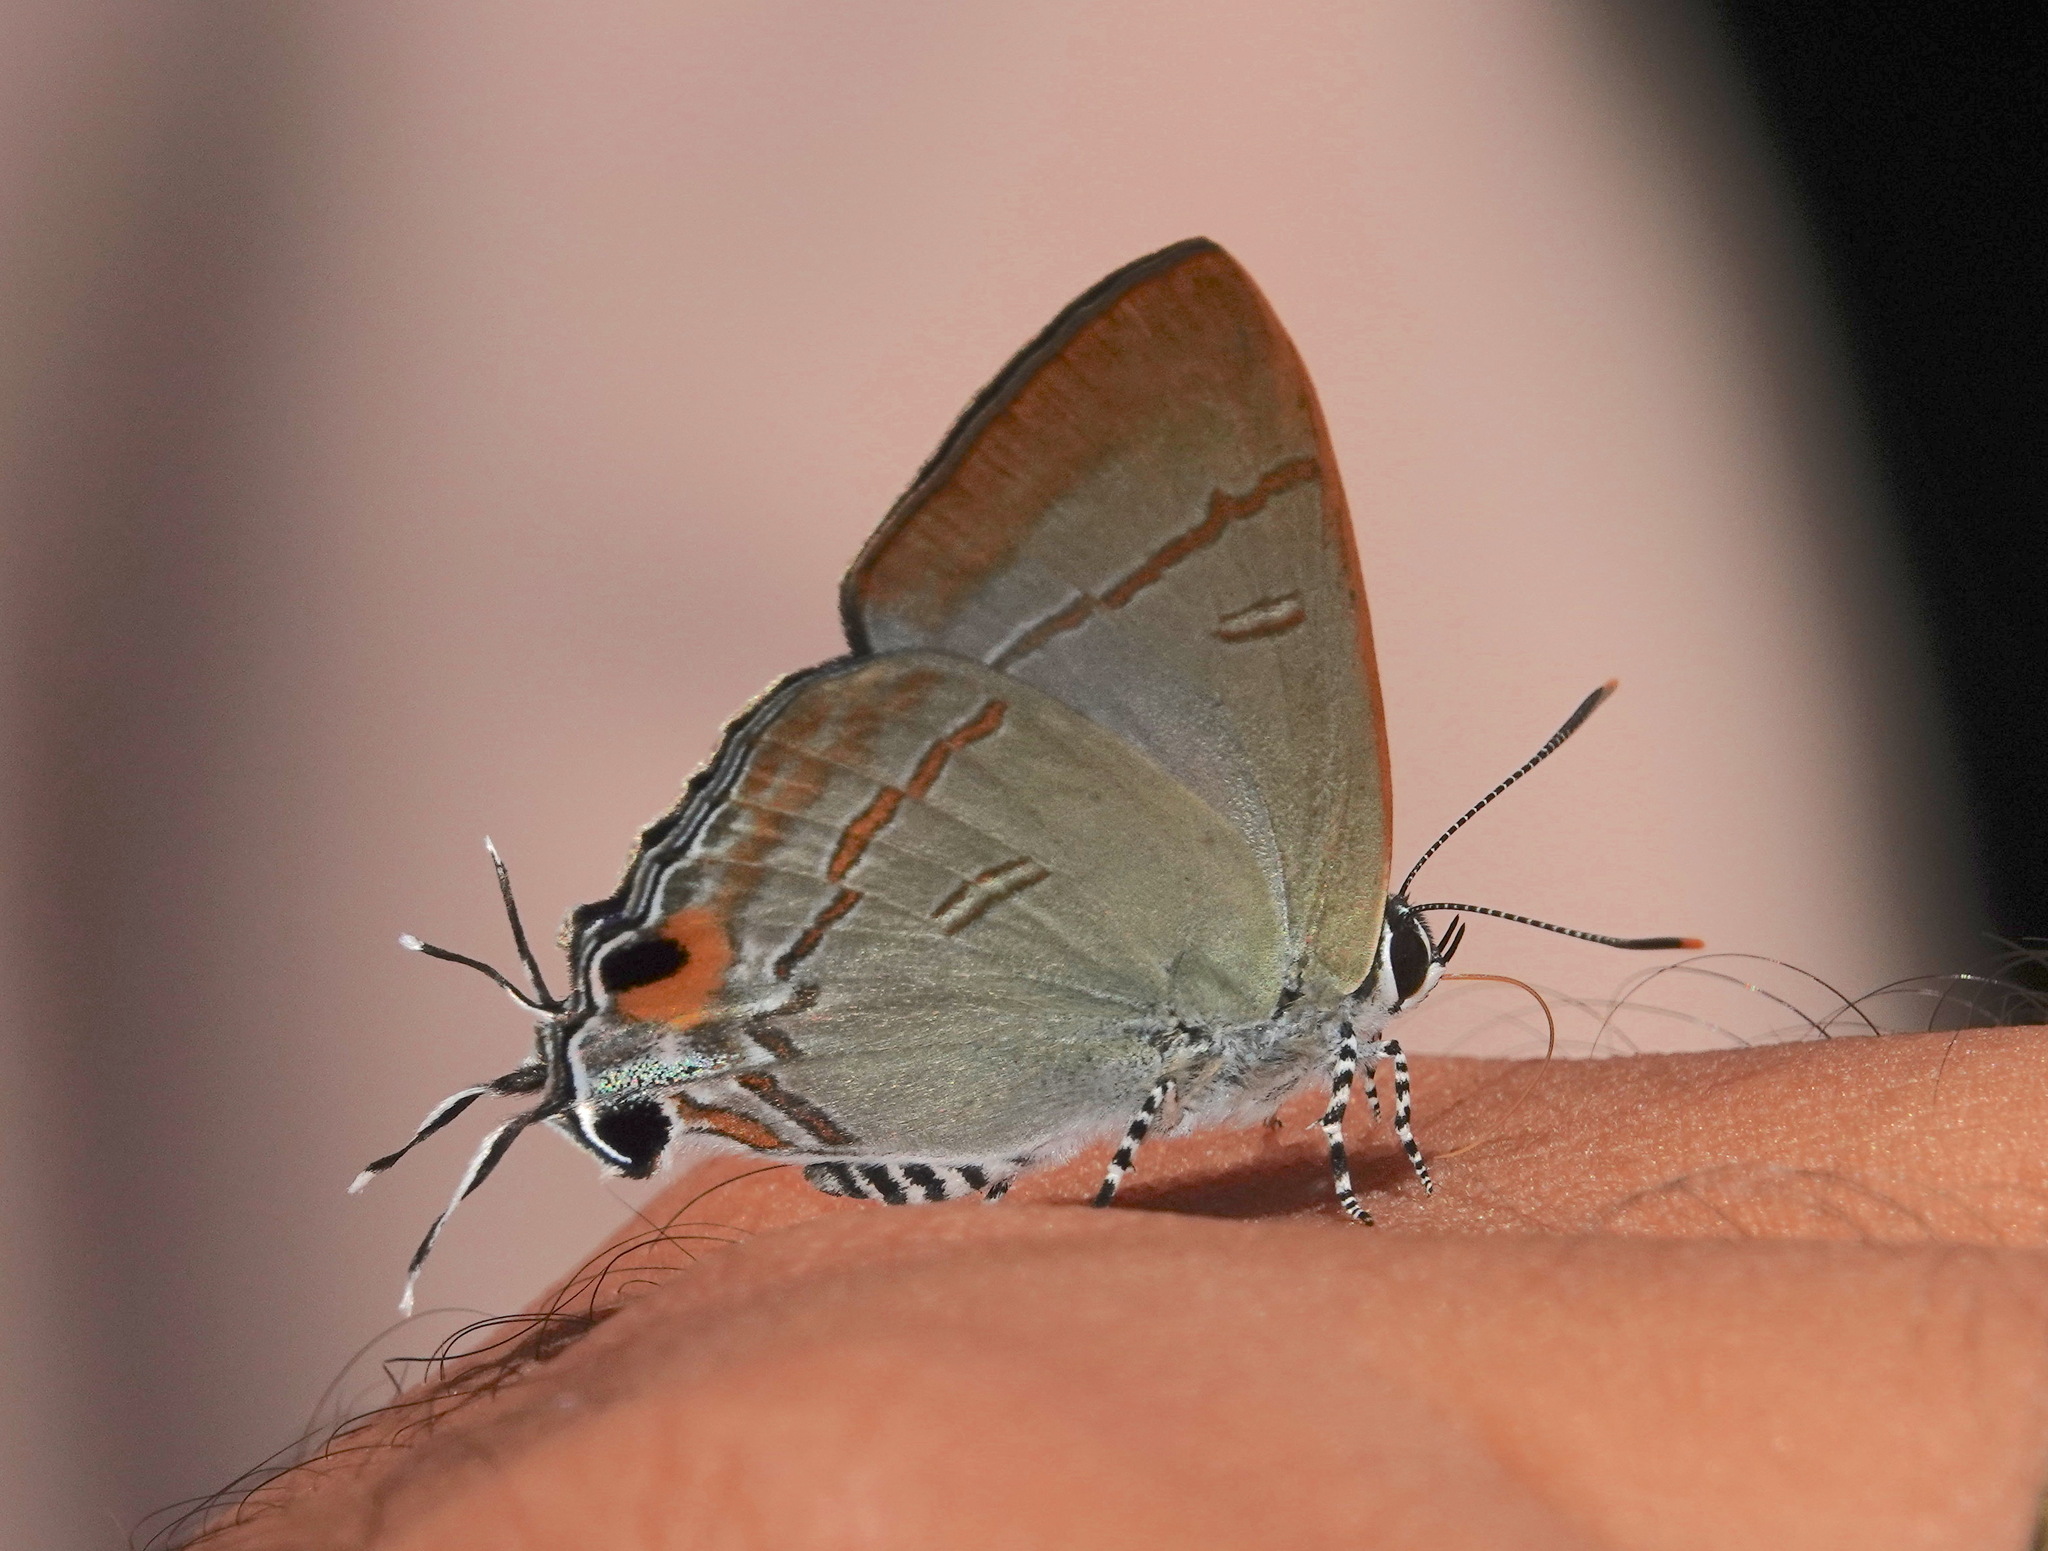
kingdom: Animalia
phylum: Arthropoda
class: Insecta
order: Lepidoptera
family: Lycaenidae
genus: Hypolycaena
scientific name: Hypolycaena erylus
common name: Common tit
